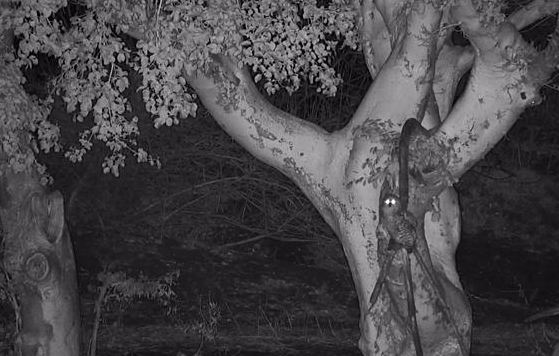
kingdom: Animalia
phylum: Chordata
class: Aves
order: Strigiformes
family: Strigidae
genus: Scotopelia
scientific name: Scotopelia peli
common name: Pel's fishing owl
